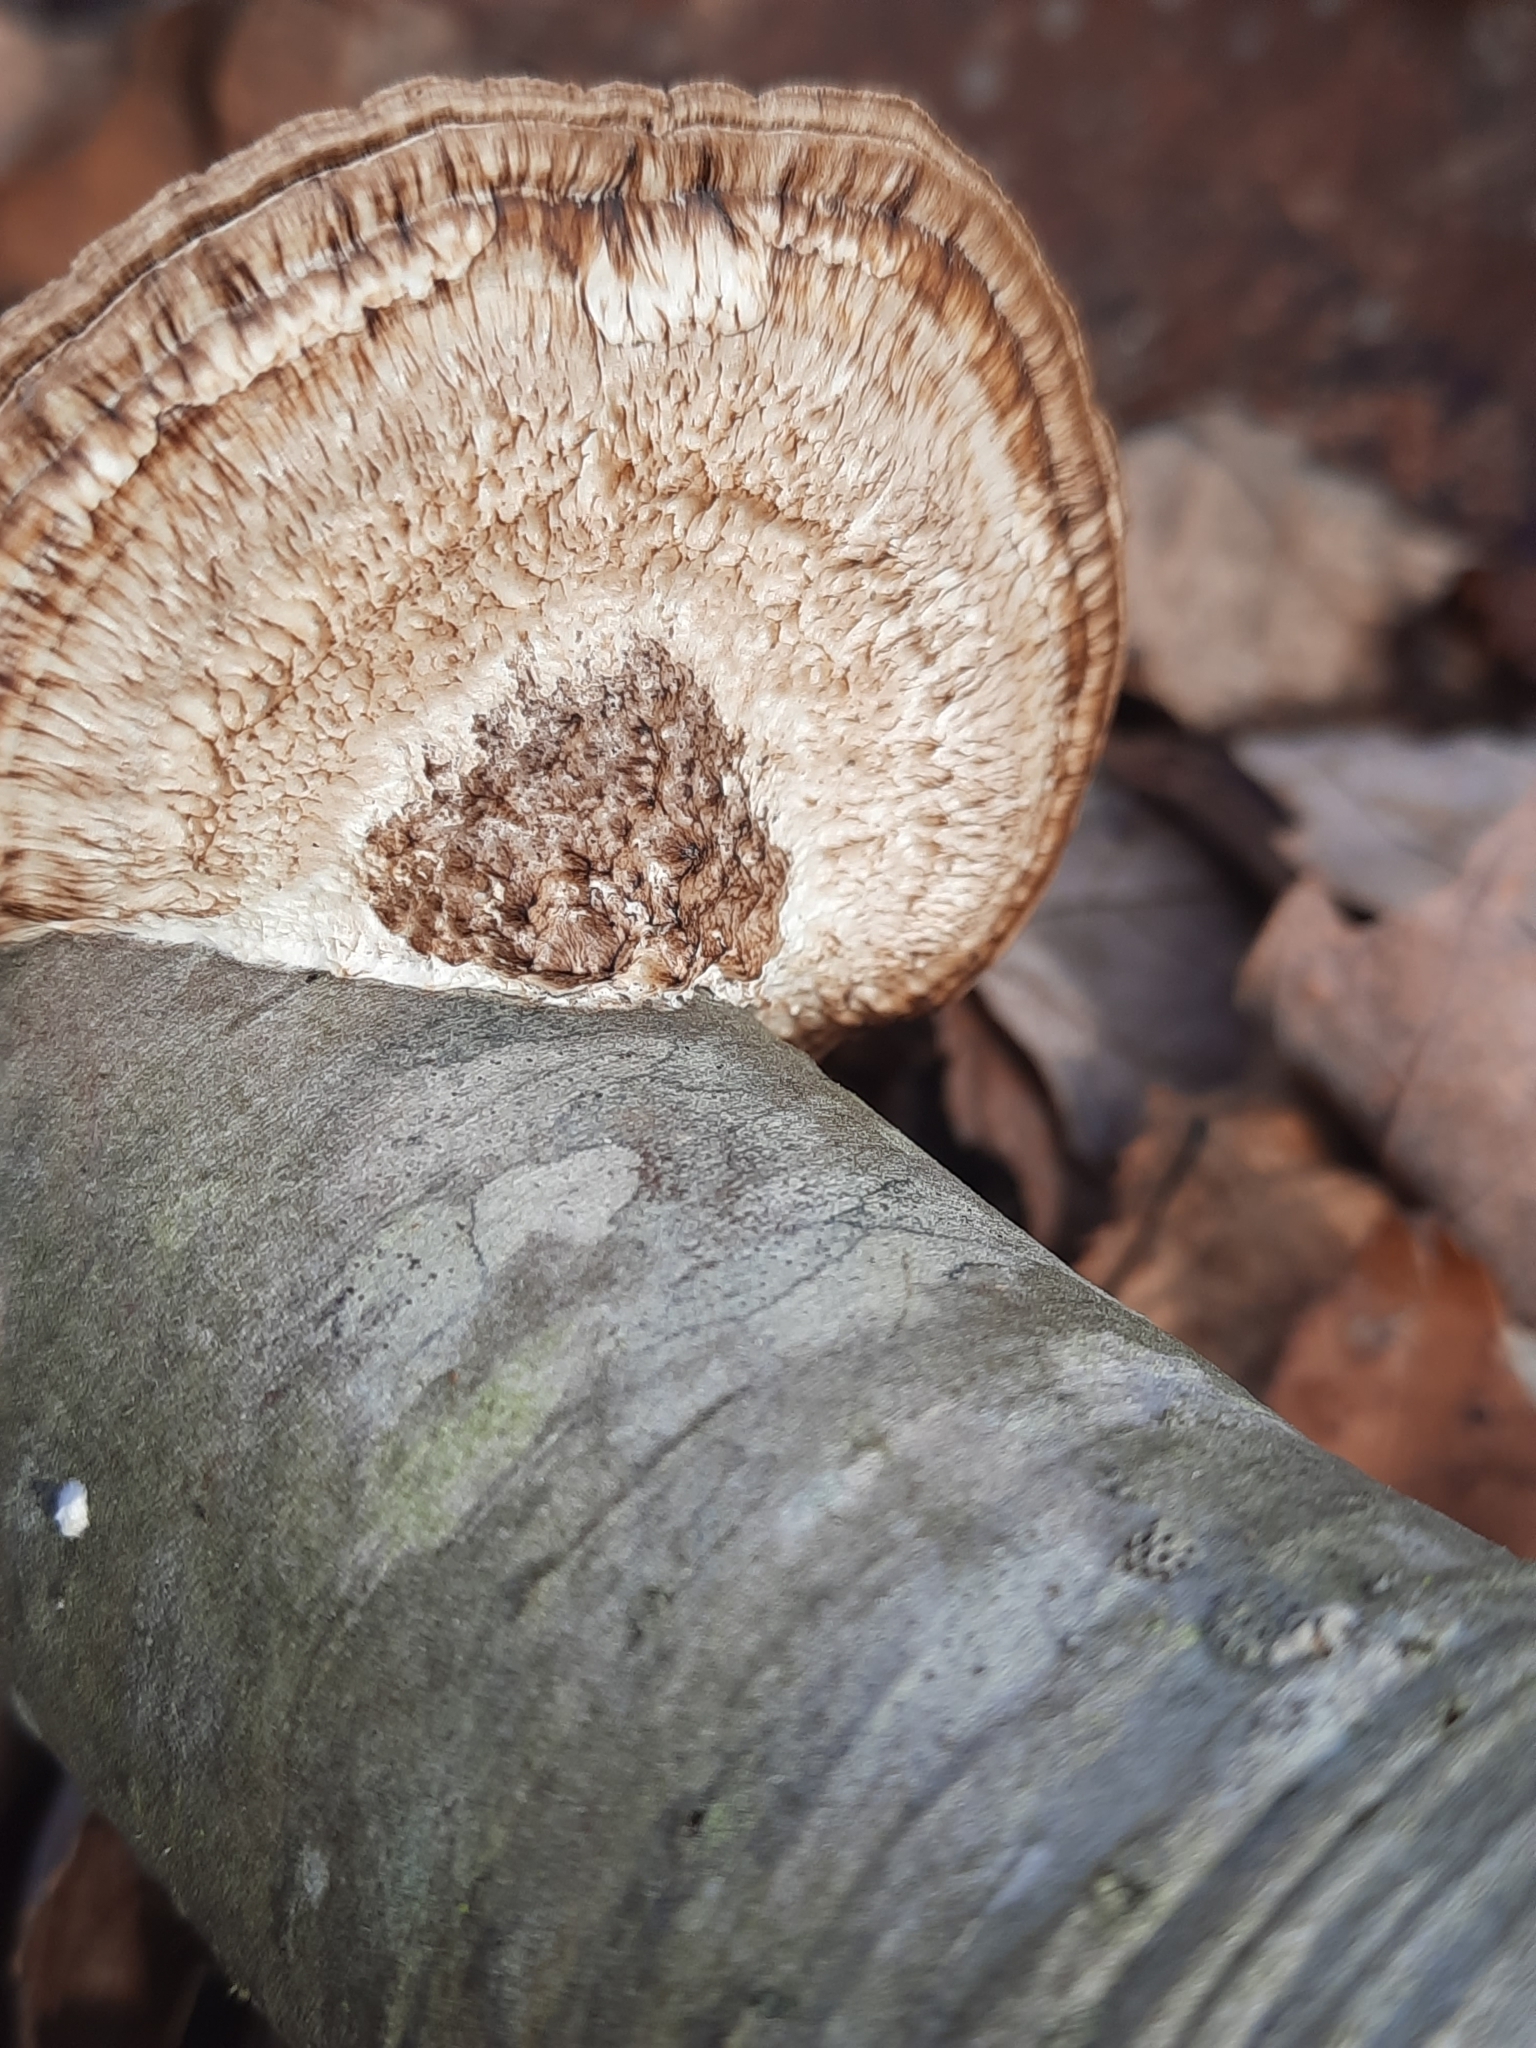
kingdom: Fungi
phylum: Basidiomycota
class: Agaricomycetes
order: Polyporales
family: Polyporaceae
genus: Daedaleopsis
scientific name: Daedaleopsis confragosa
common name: Blushing bracket
